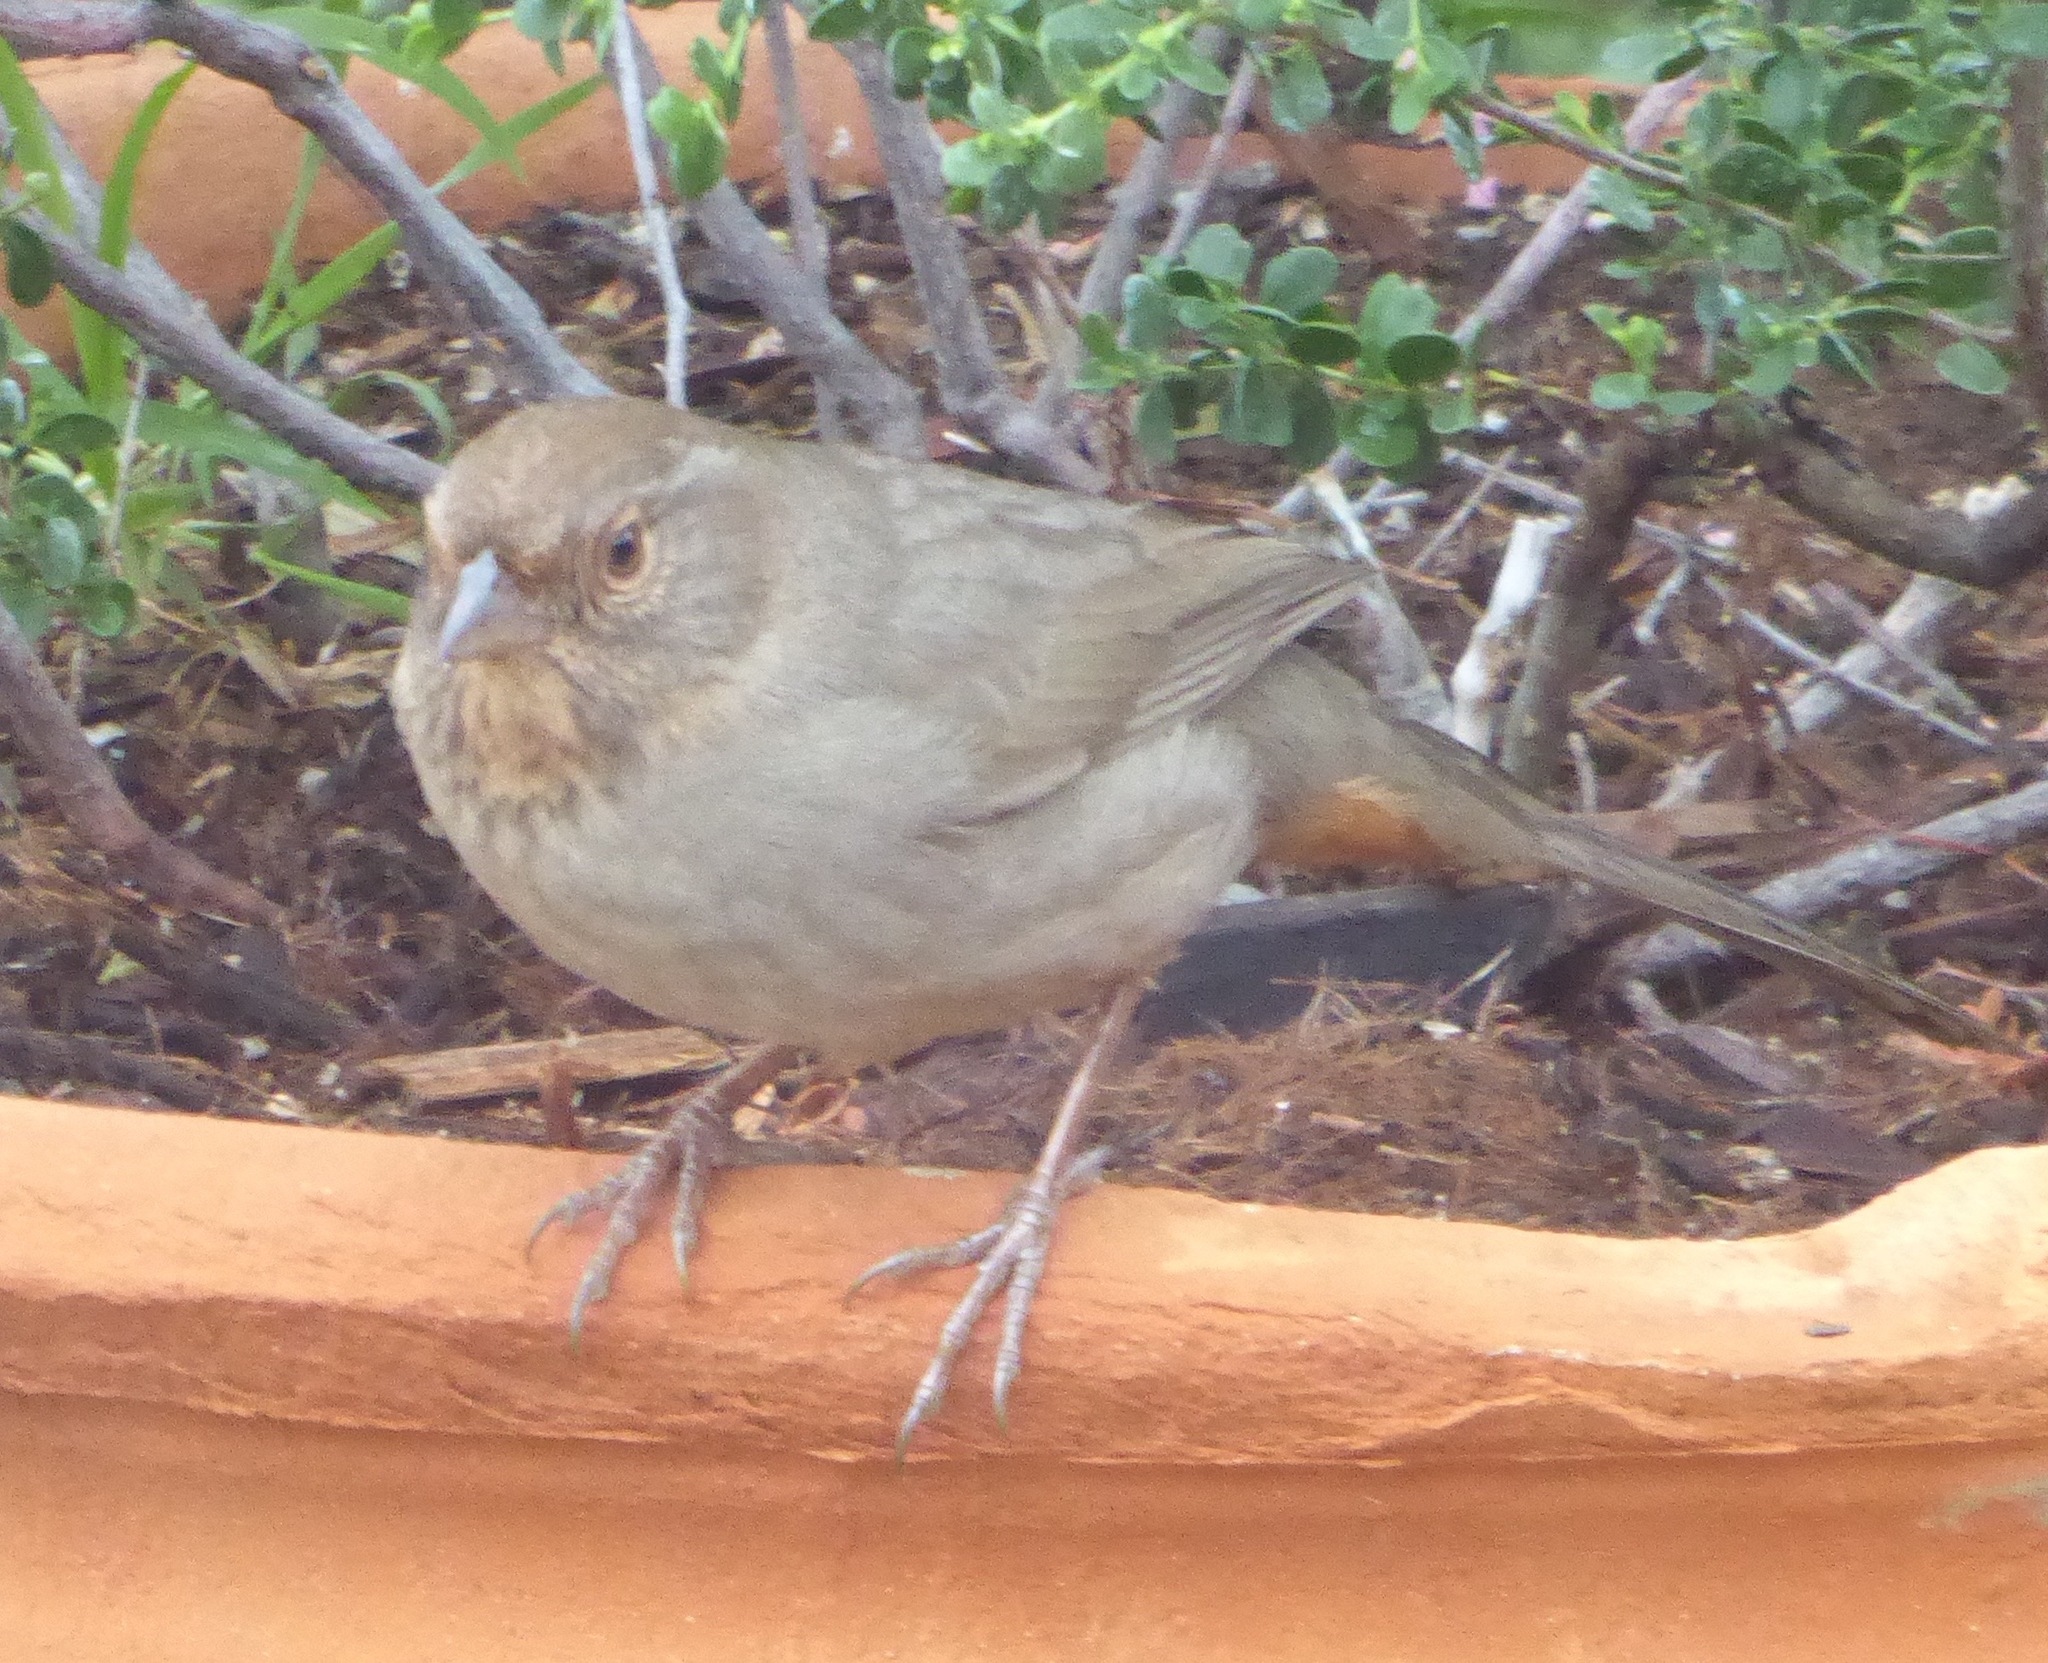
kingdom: Animalia
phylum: Chordata
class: Aves
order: Passeriformes
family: Passerellidae
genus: Melozone
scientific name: Melozone crissalis
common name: California towhee
